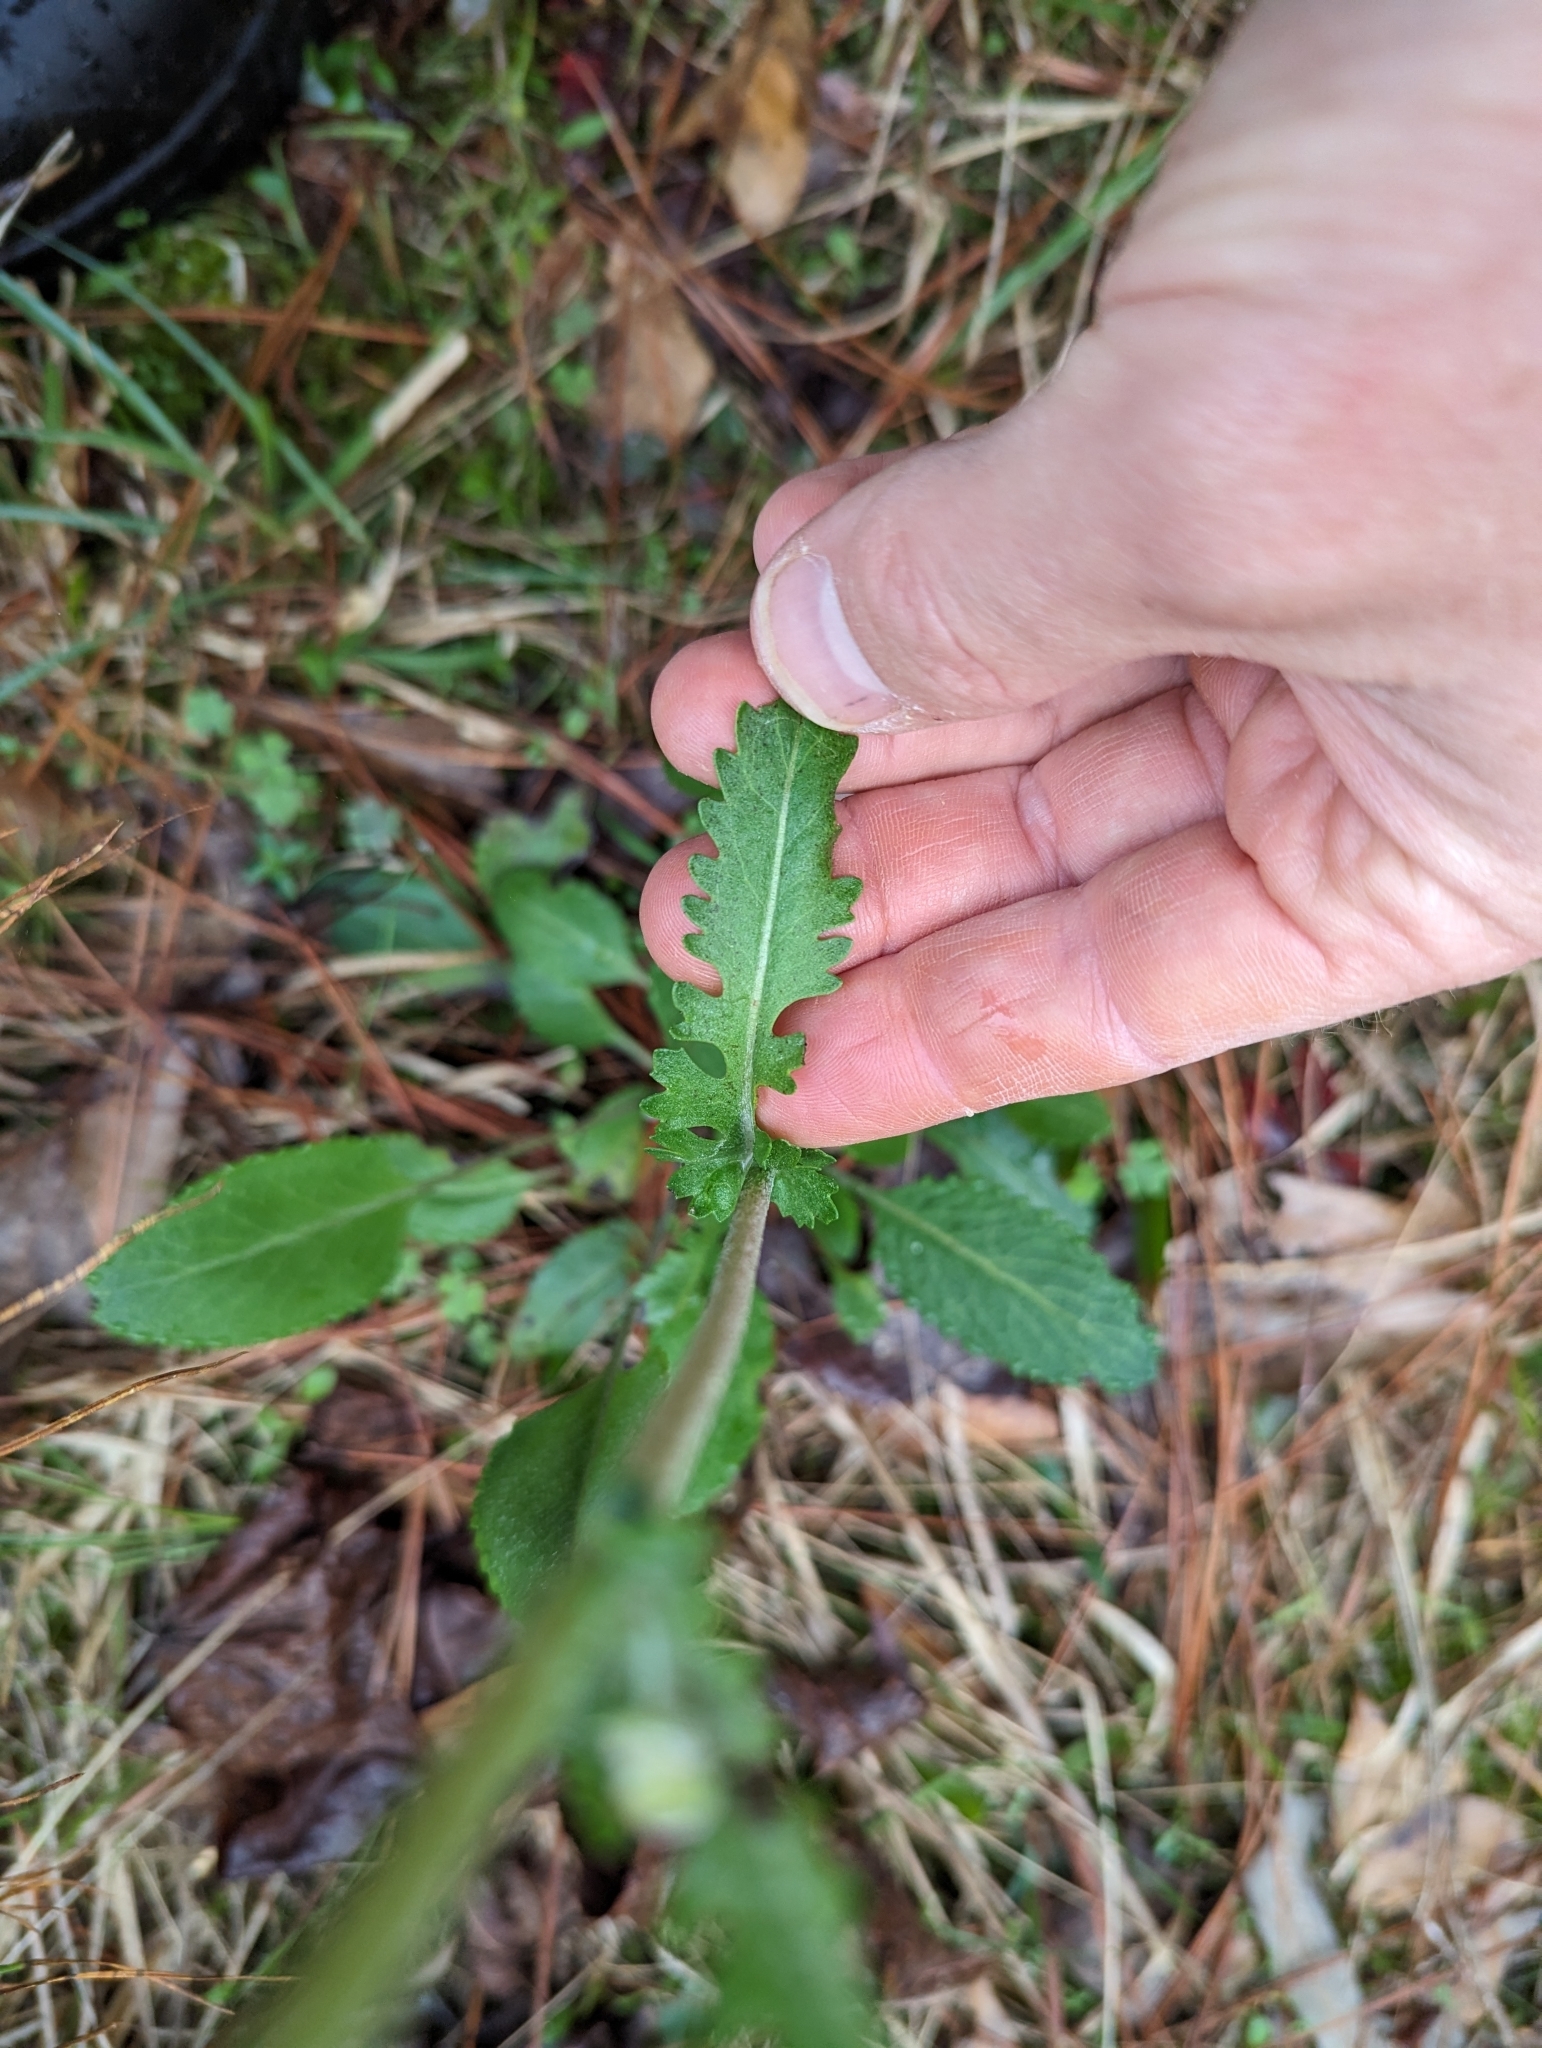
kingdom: Plantae
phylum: Tracheophyta
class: Magnoliopsida
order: Asterales
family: Asteraceae
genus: Packera
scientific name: Packera dubia
